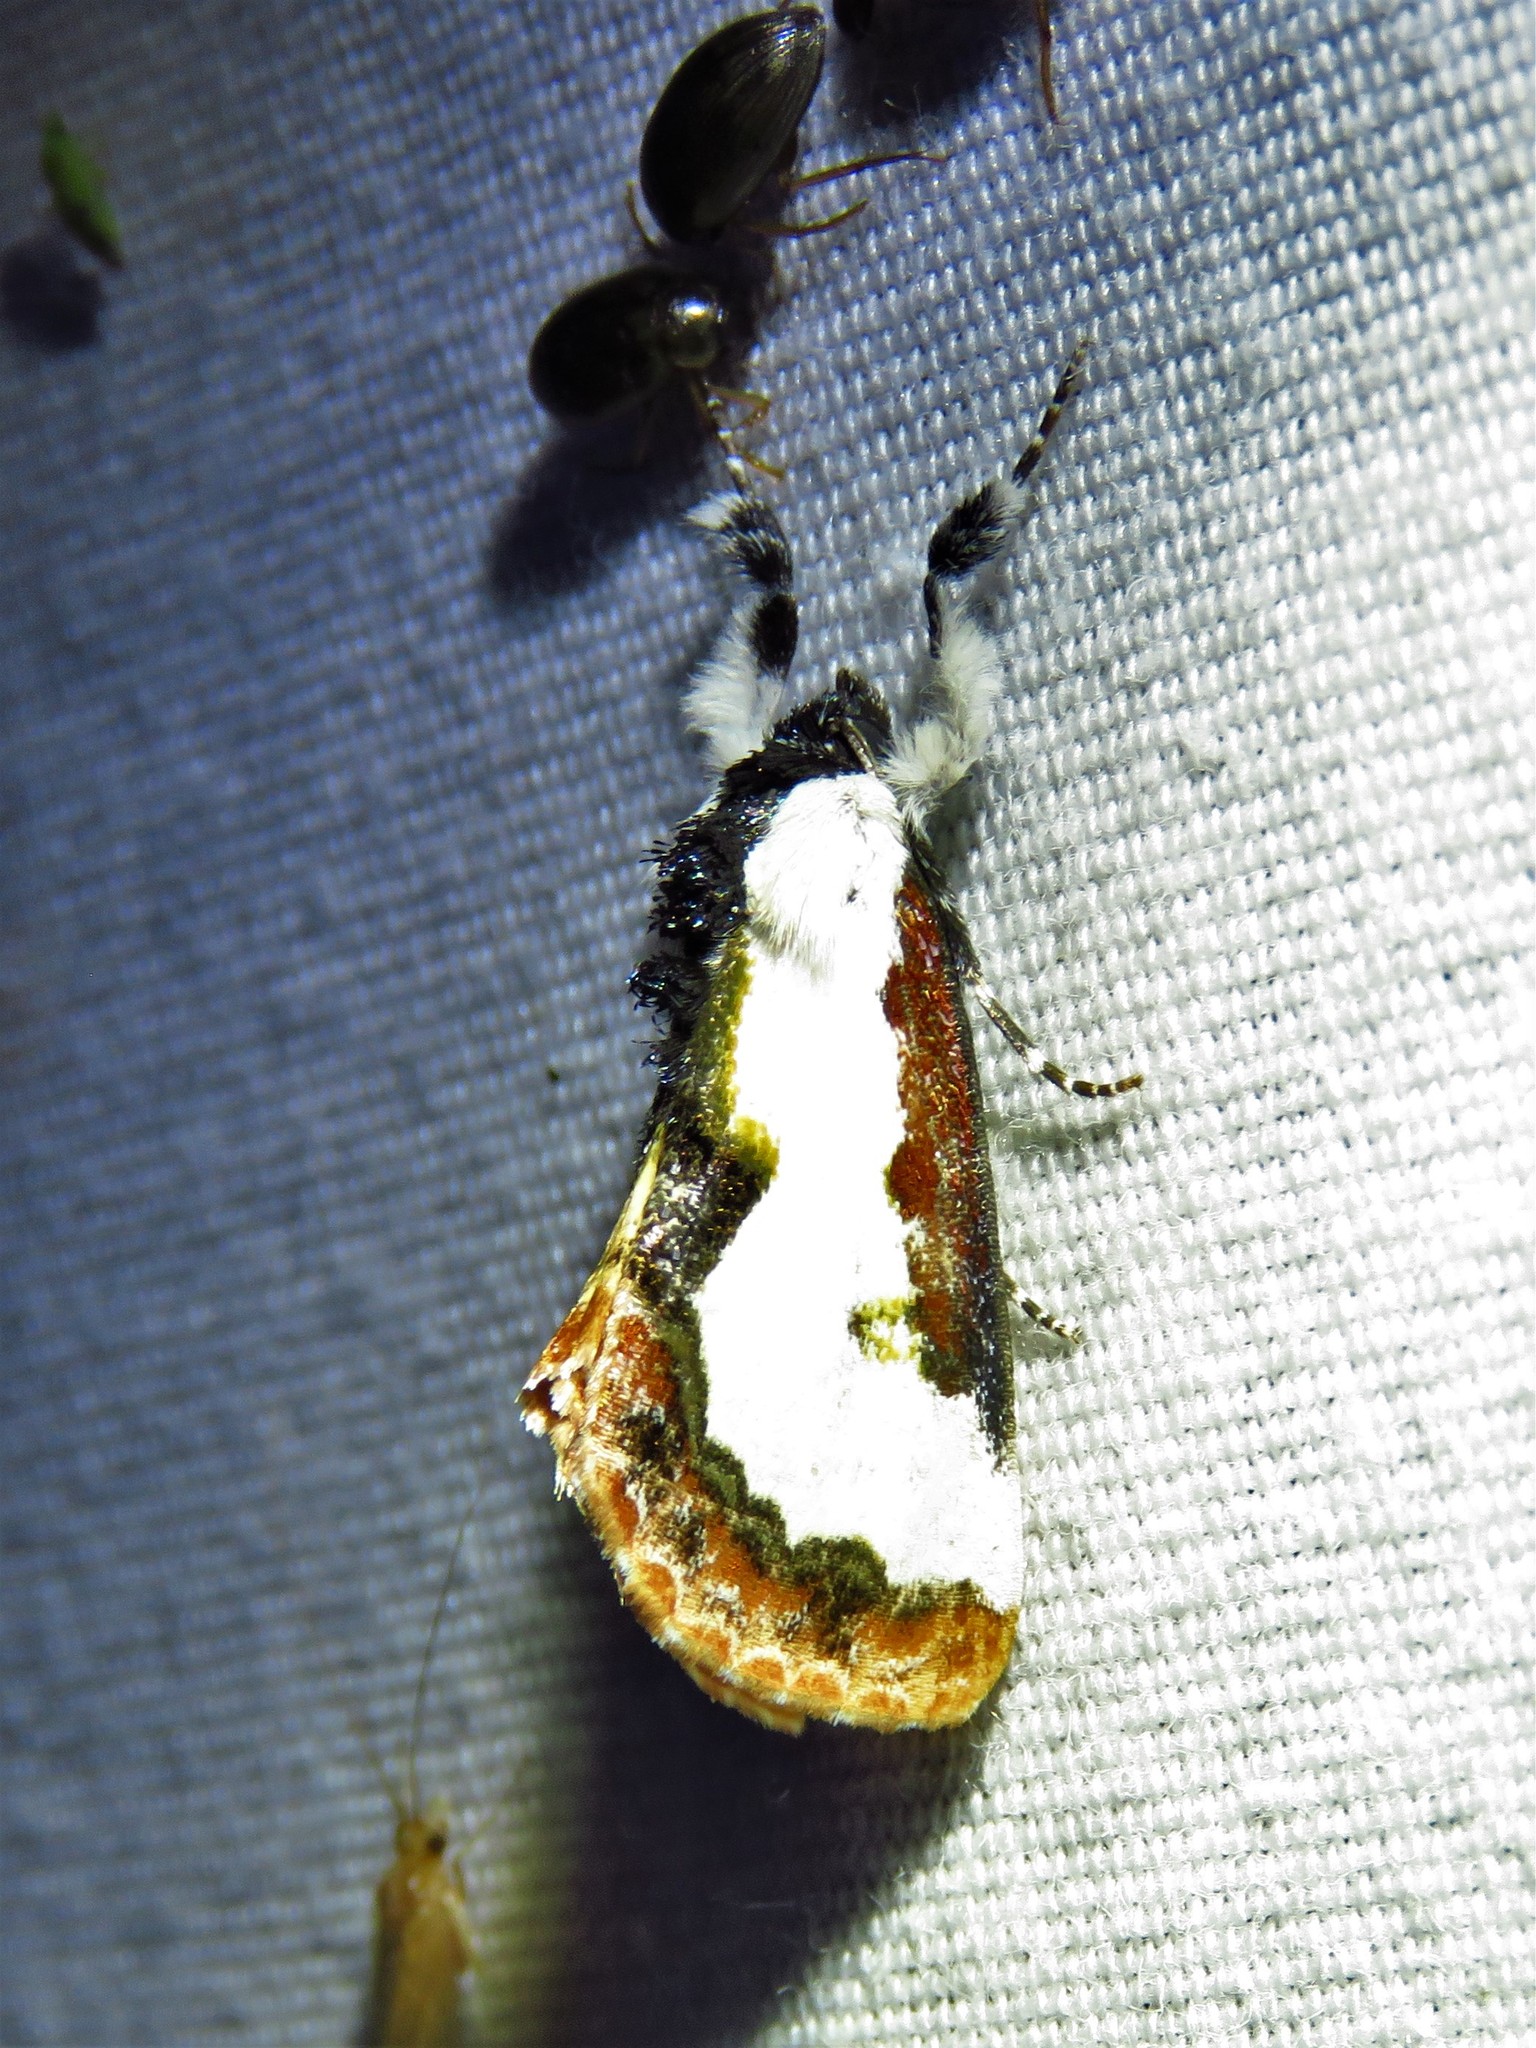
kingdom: Animalia
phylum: Arthropoda
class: Insecta
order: Lepidoptera
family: Noctuidae
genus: Eudryas
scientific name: Eudryas unio
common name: Pearly wood-nymph
